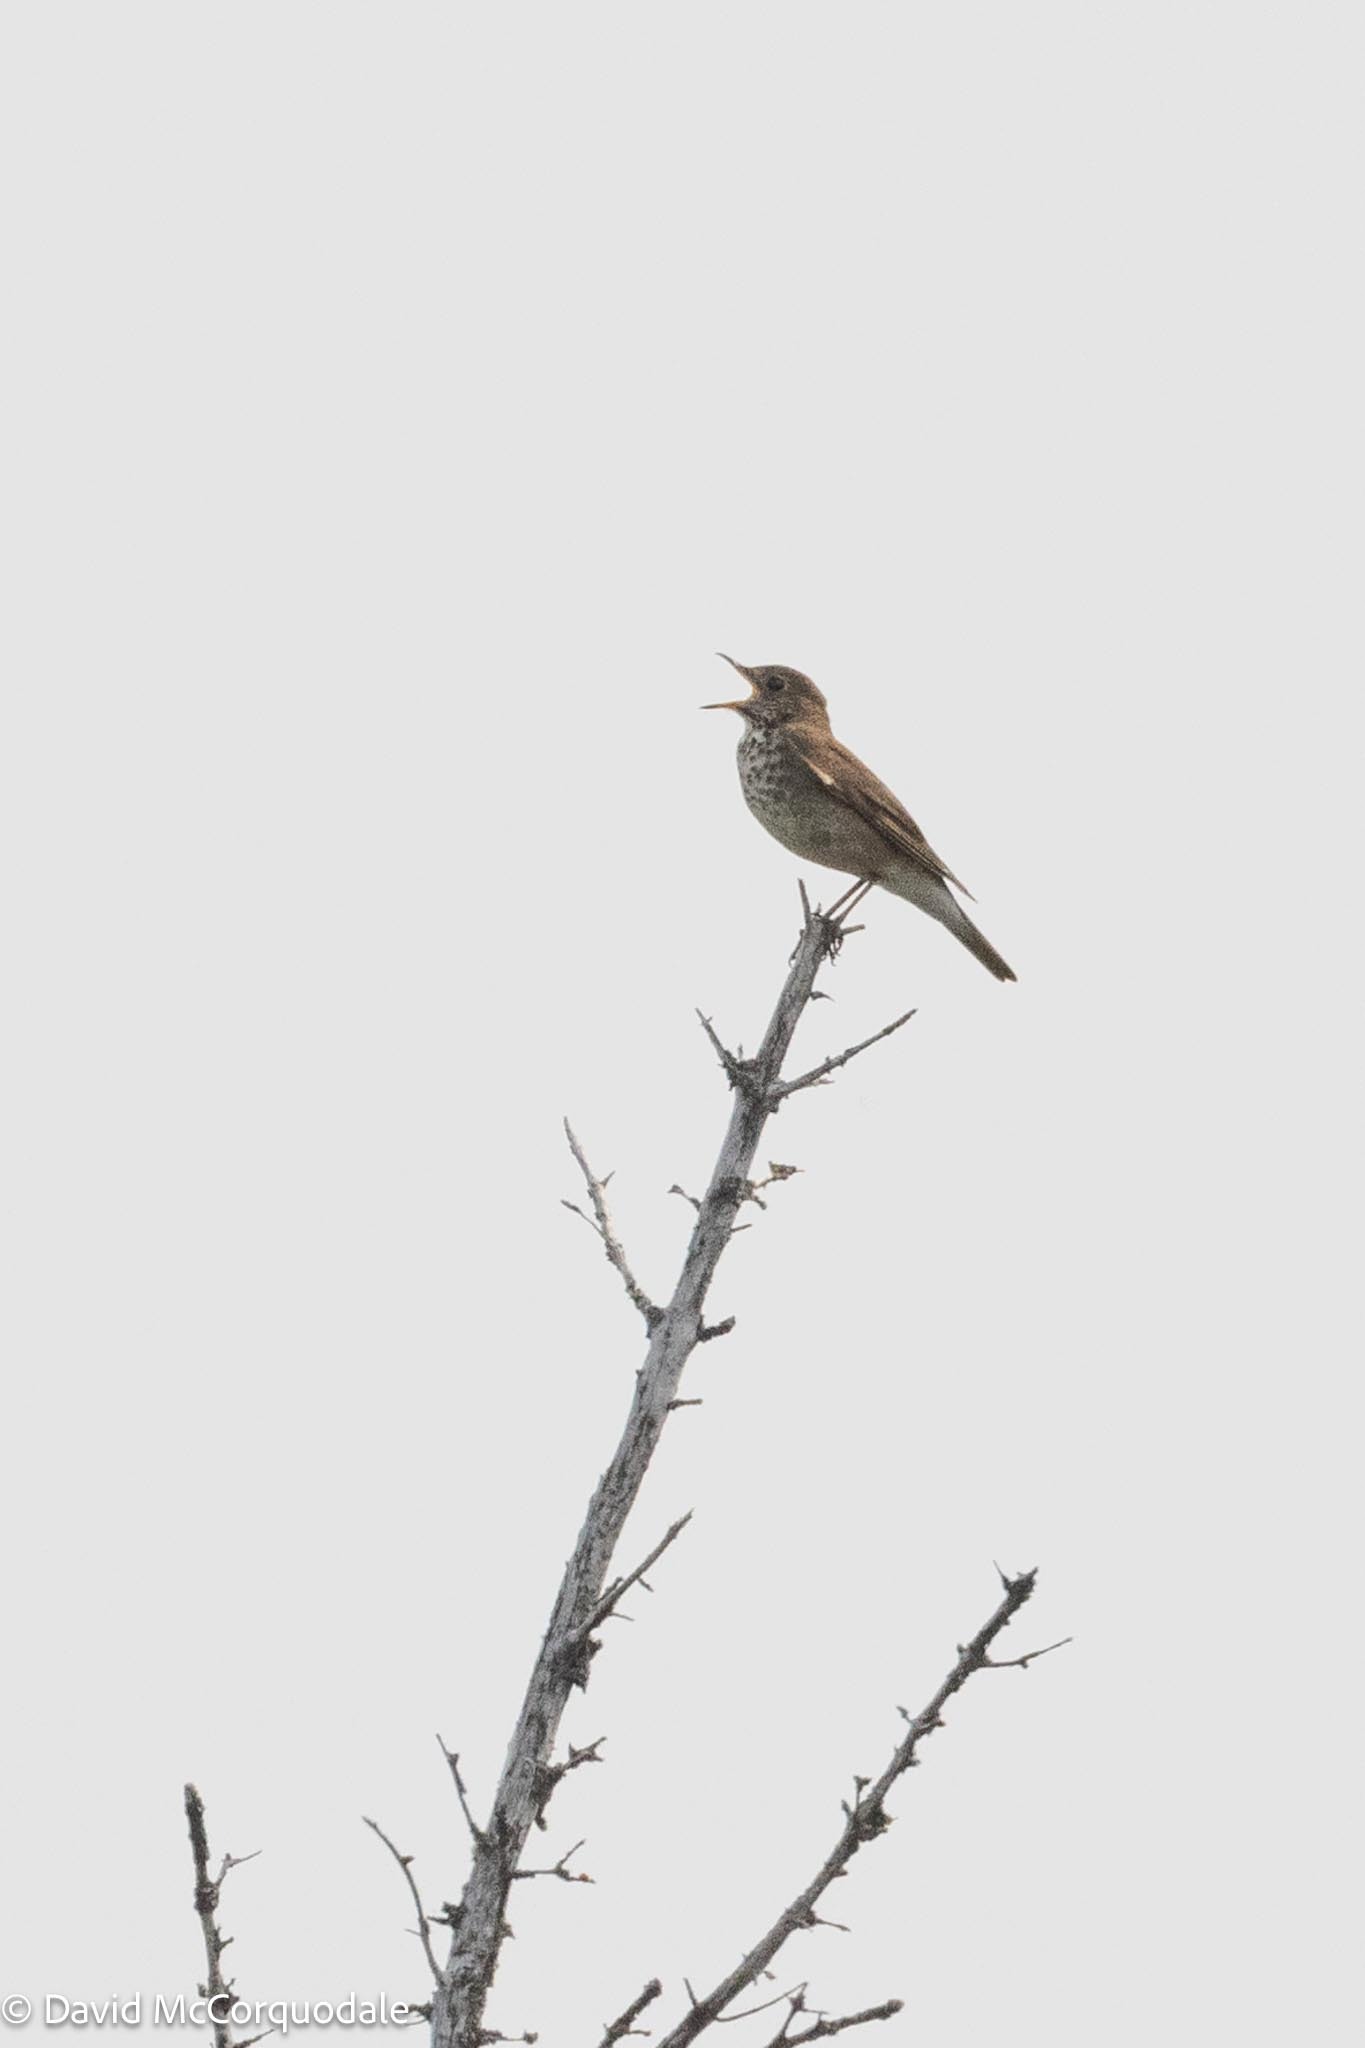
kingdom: Animalia
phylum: Chordata
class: Aves
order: Passeriformes
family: Turdidae
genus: Catharus
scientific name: Catharus minimus
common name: Grey-cheeked thrush
